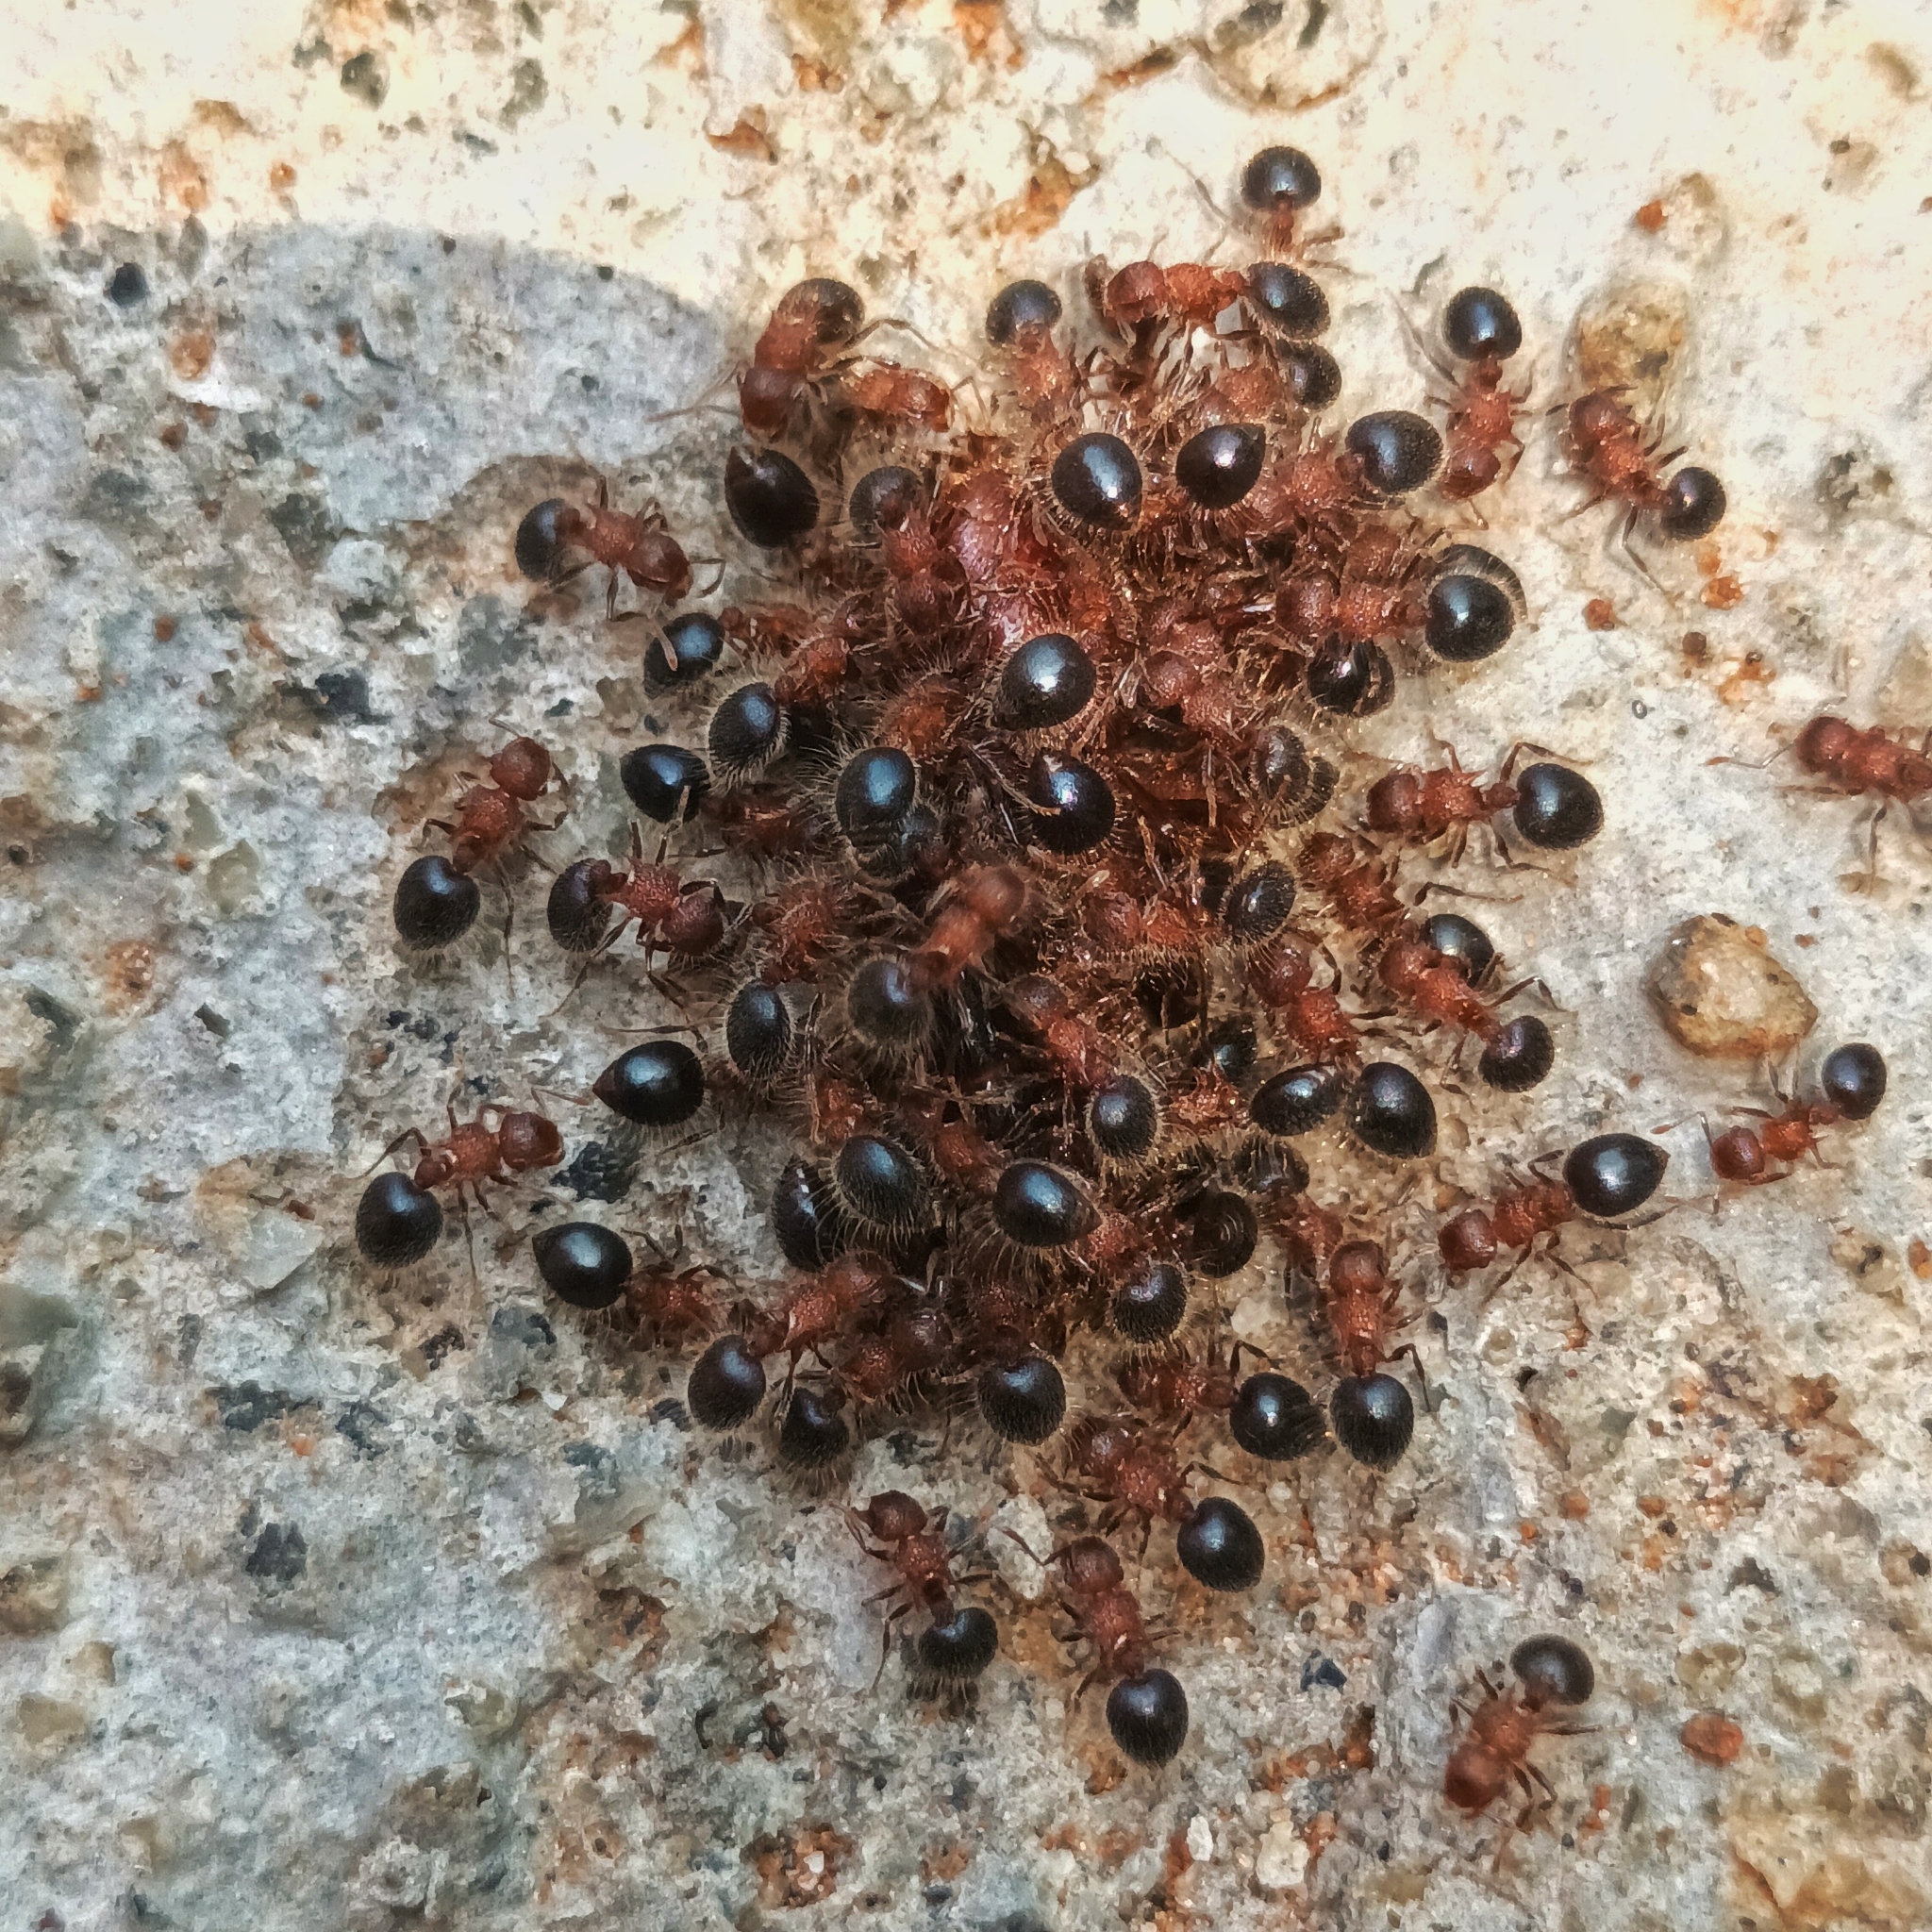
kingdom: Animalia
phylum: Arthropoda
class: Insecta
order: Hymenoptera
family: Formicidae
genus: Meranoplus
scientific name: Meranoplus bicolor
